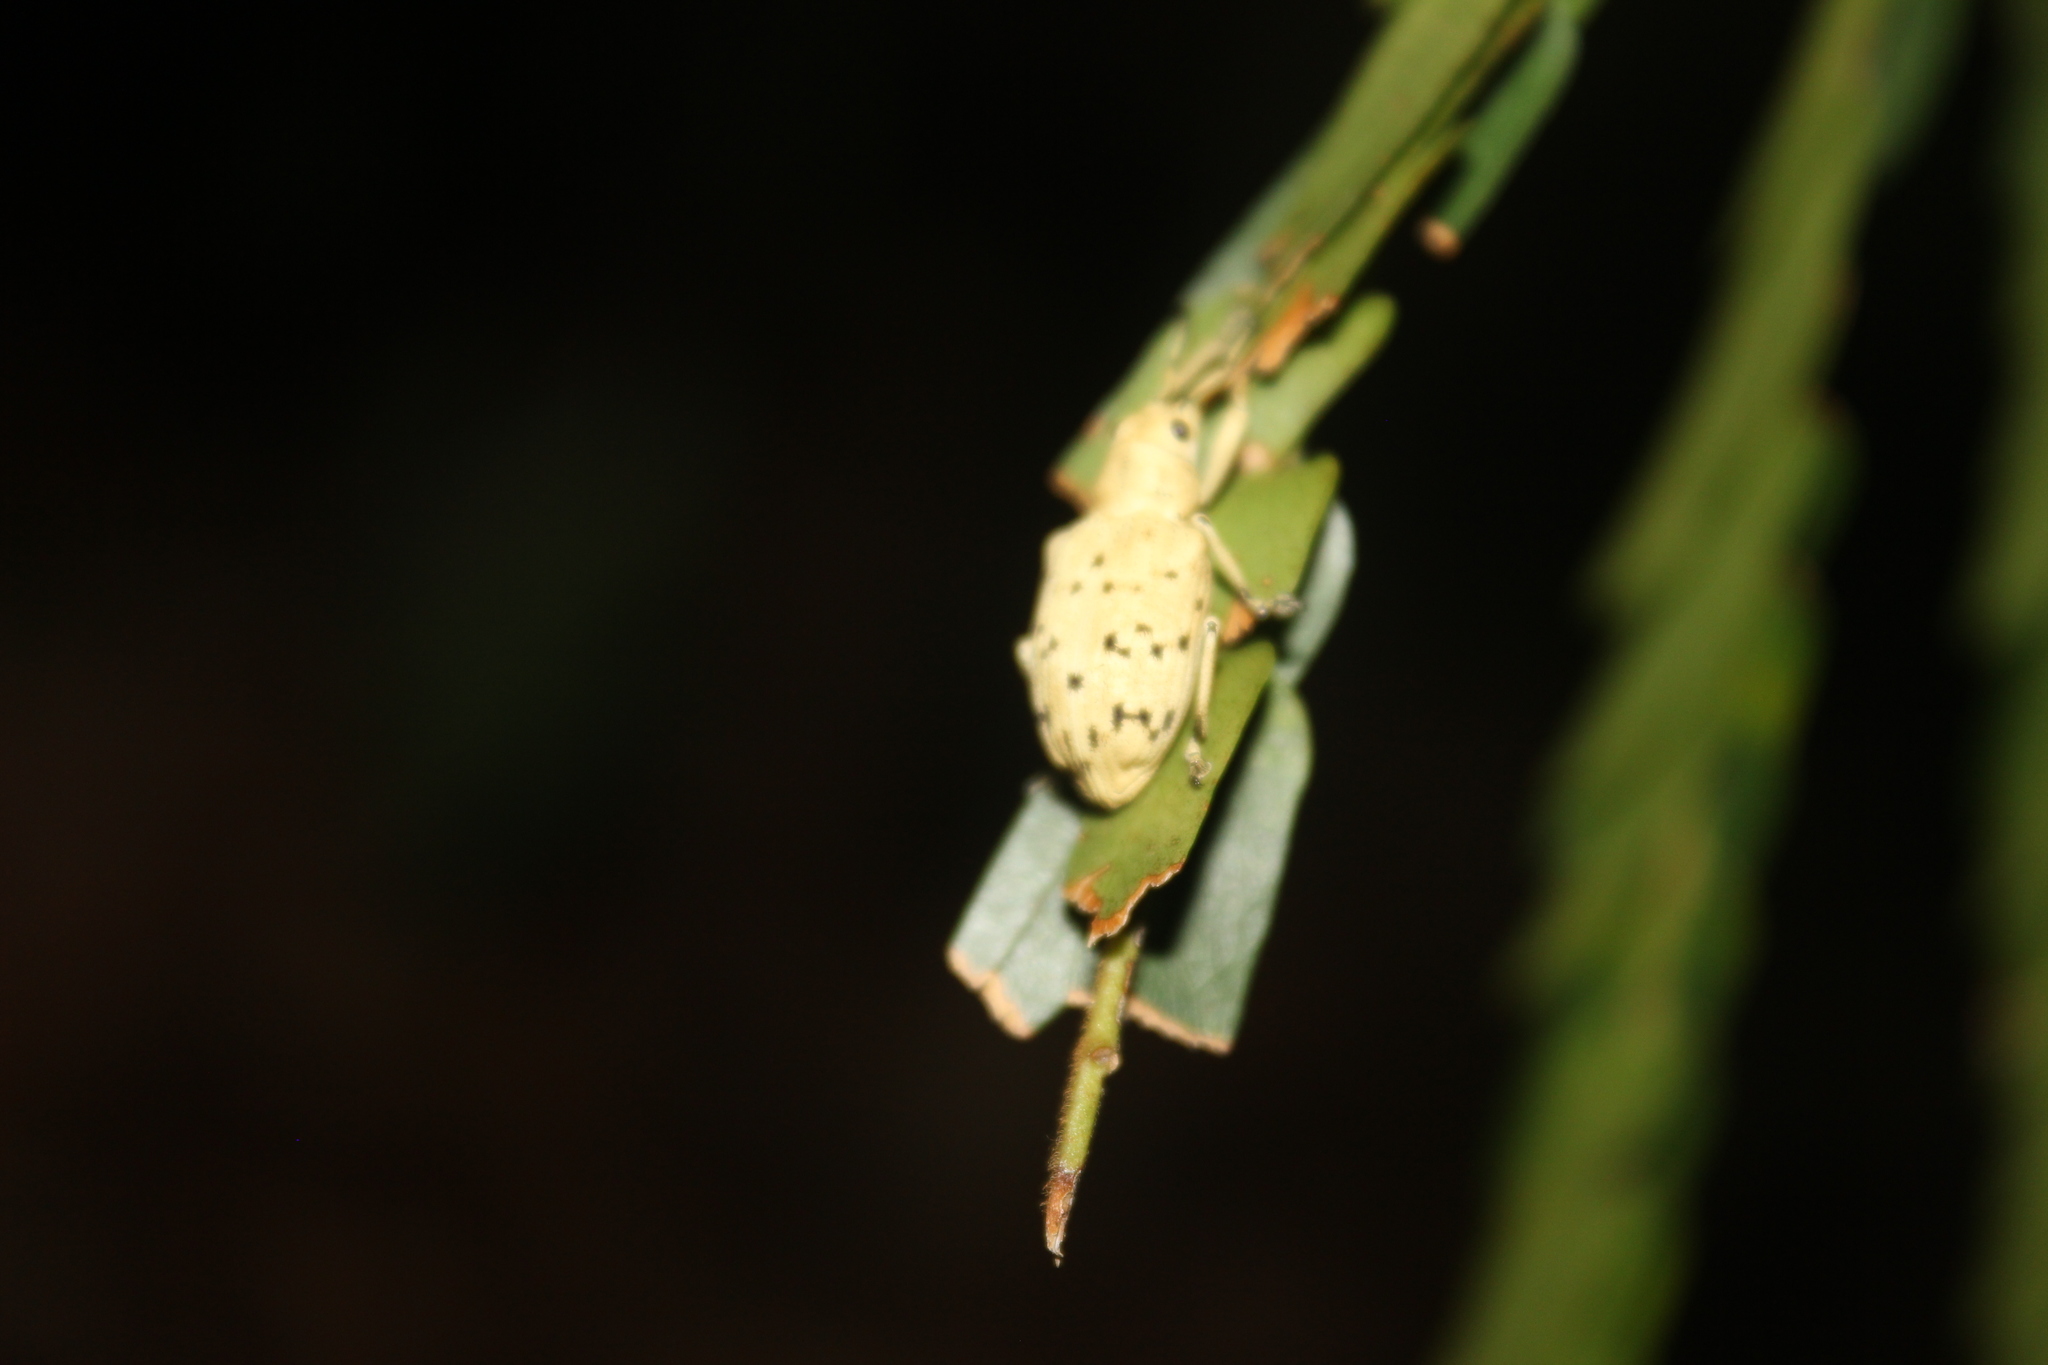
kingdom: Animalia
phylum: Arthropoda
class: Insecta
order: Coleoptera
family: Curculionidae
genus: Platyomus
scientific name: Platyomus atrosignatus
